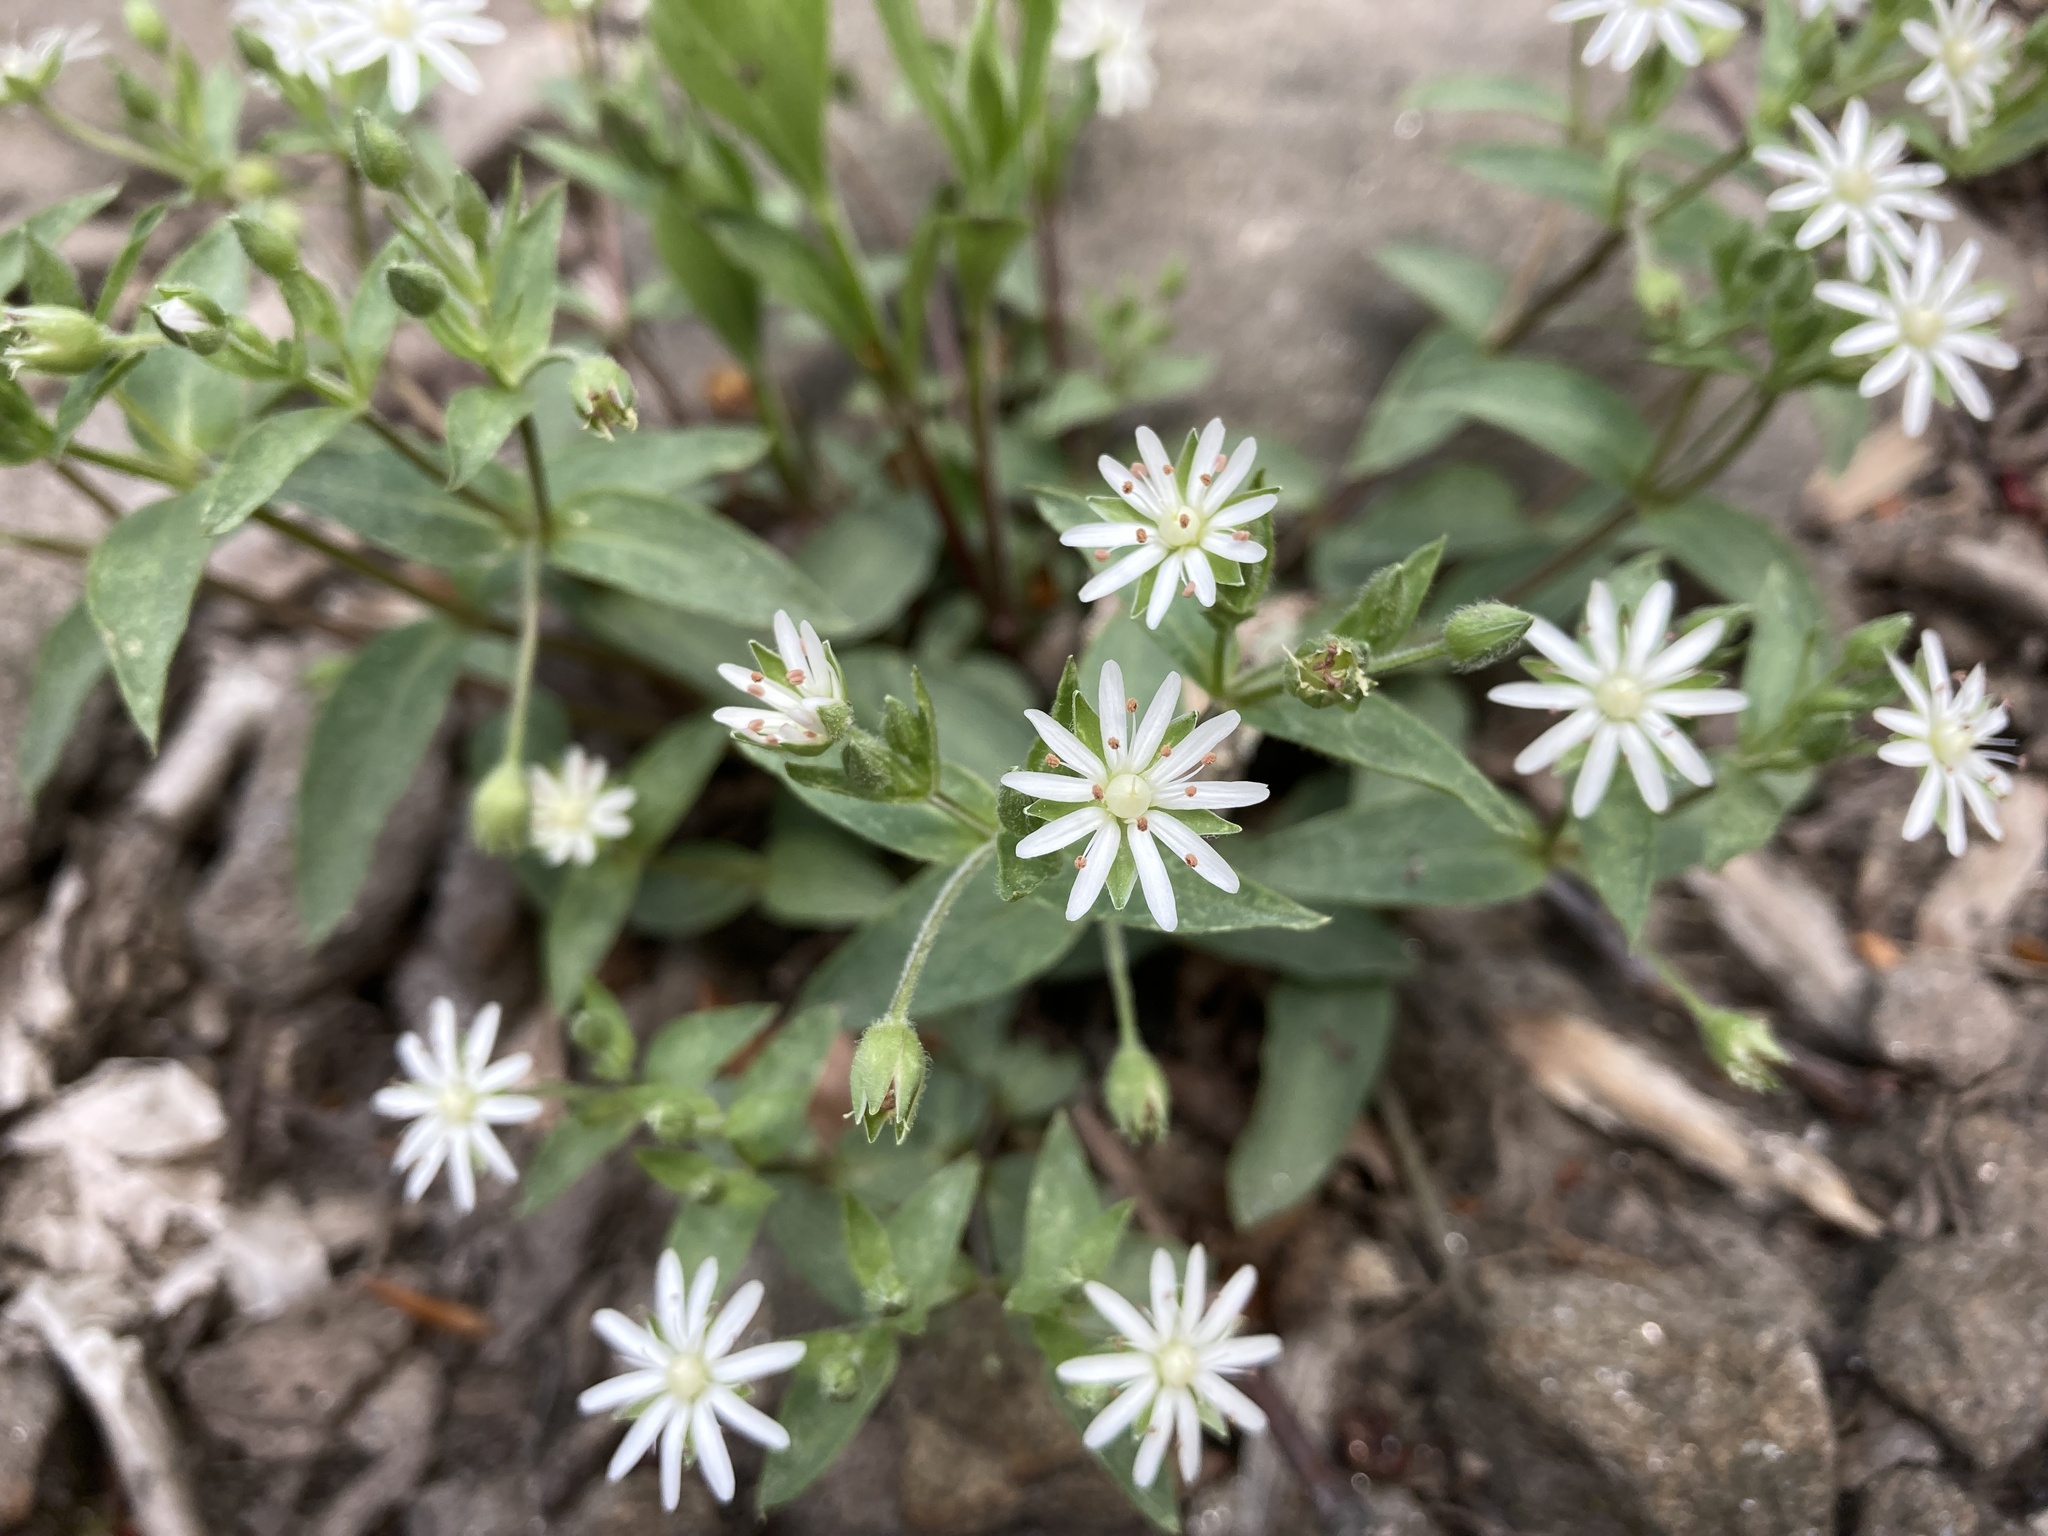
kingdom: Plantae
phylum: Tracheophyta
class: Magnoliopsida
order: Caryophyllales
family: Caryophyllaceae
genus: Stellaria
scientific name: Stellaria pubera
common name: Star chickweed
